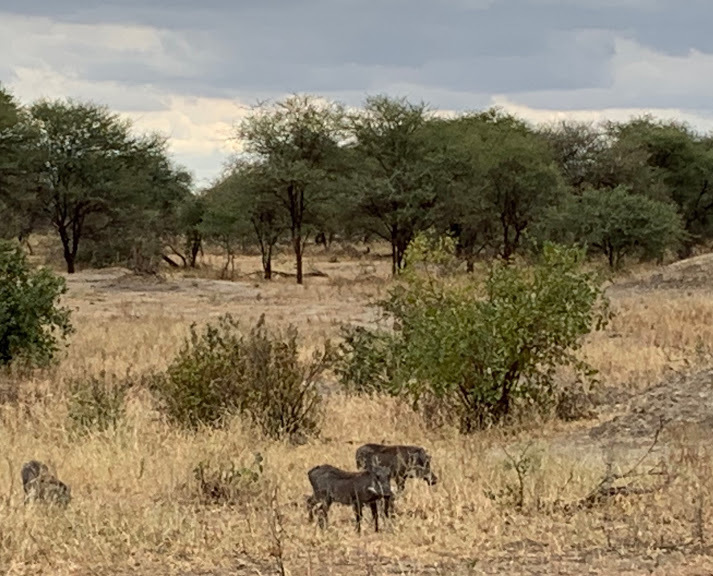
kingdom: Animalia
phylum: Chordata
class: Mammalia
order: Artiodactyla
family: Suidae
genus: Phacochoerus
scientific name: Phacochoerus africanus
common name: Common warthog
